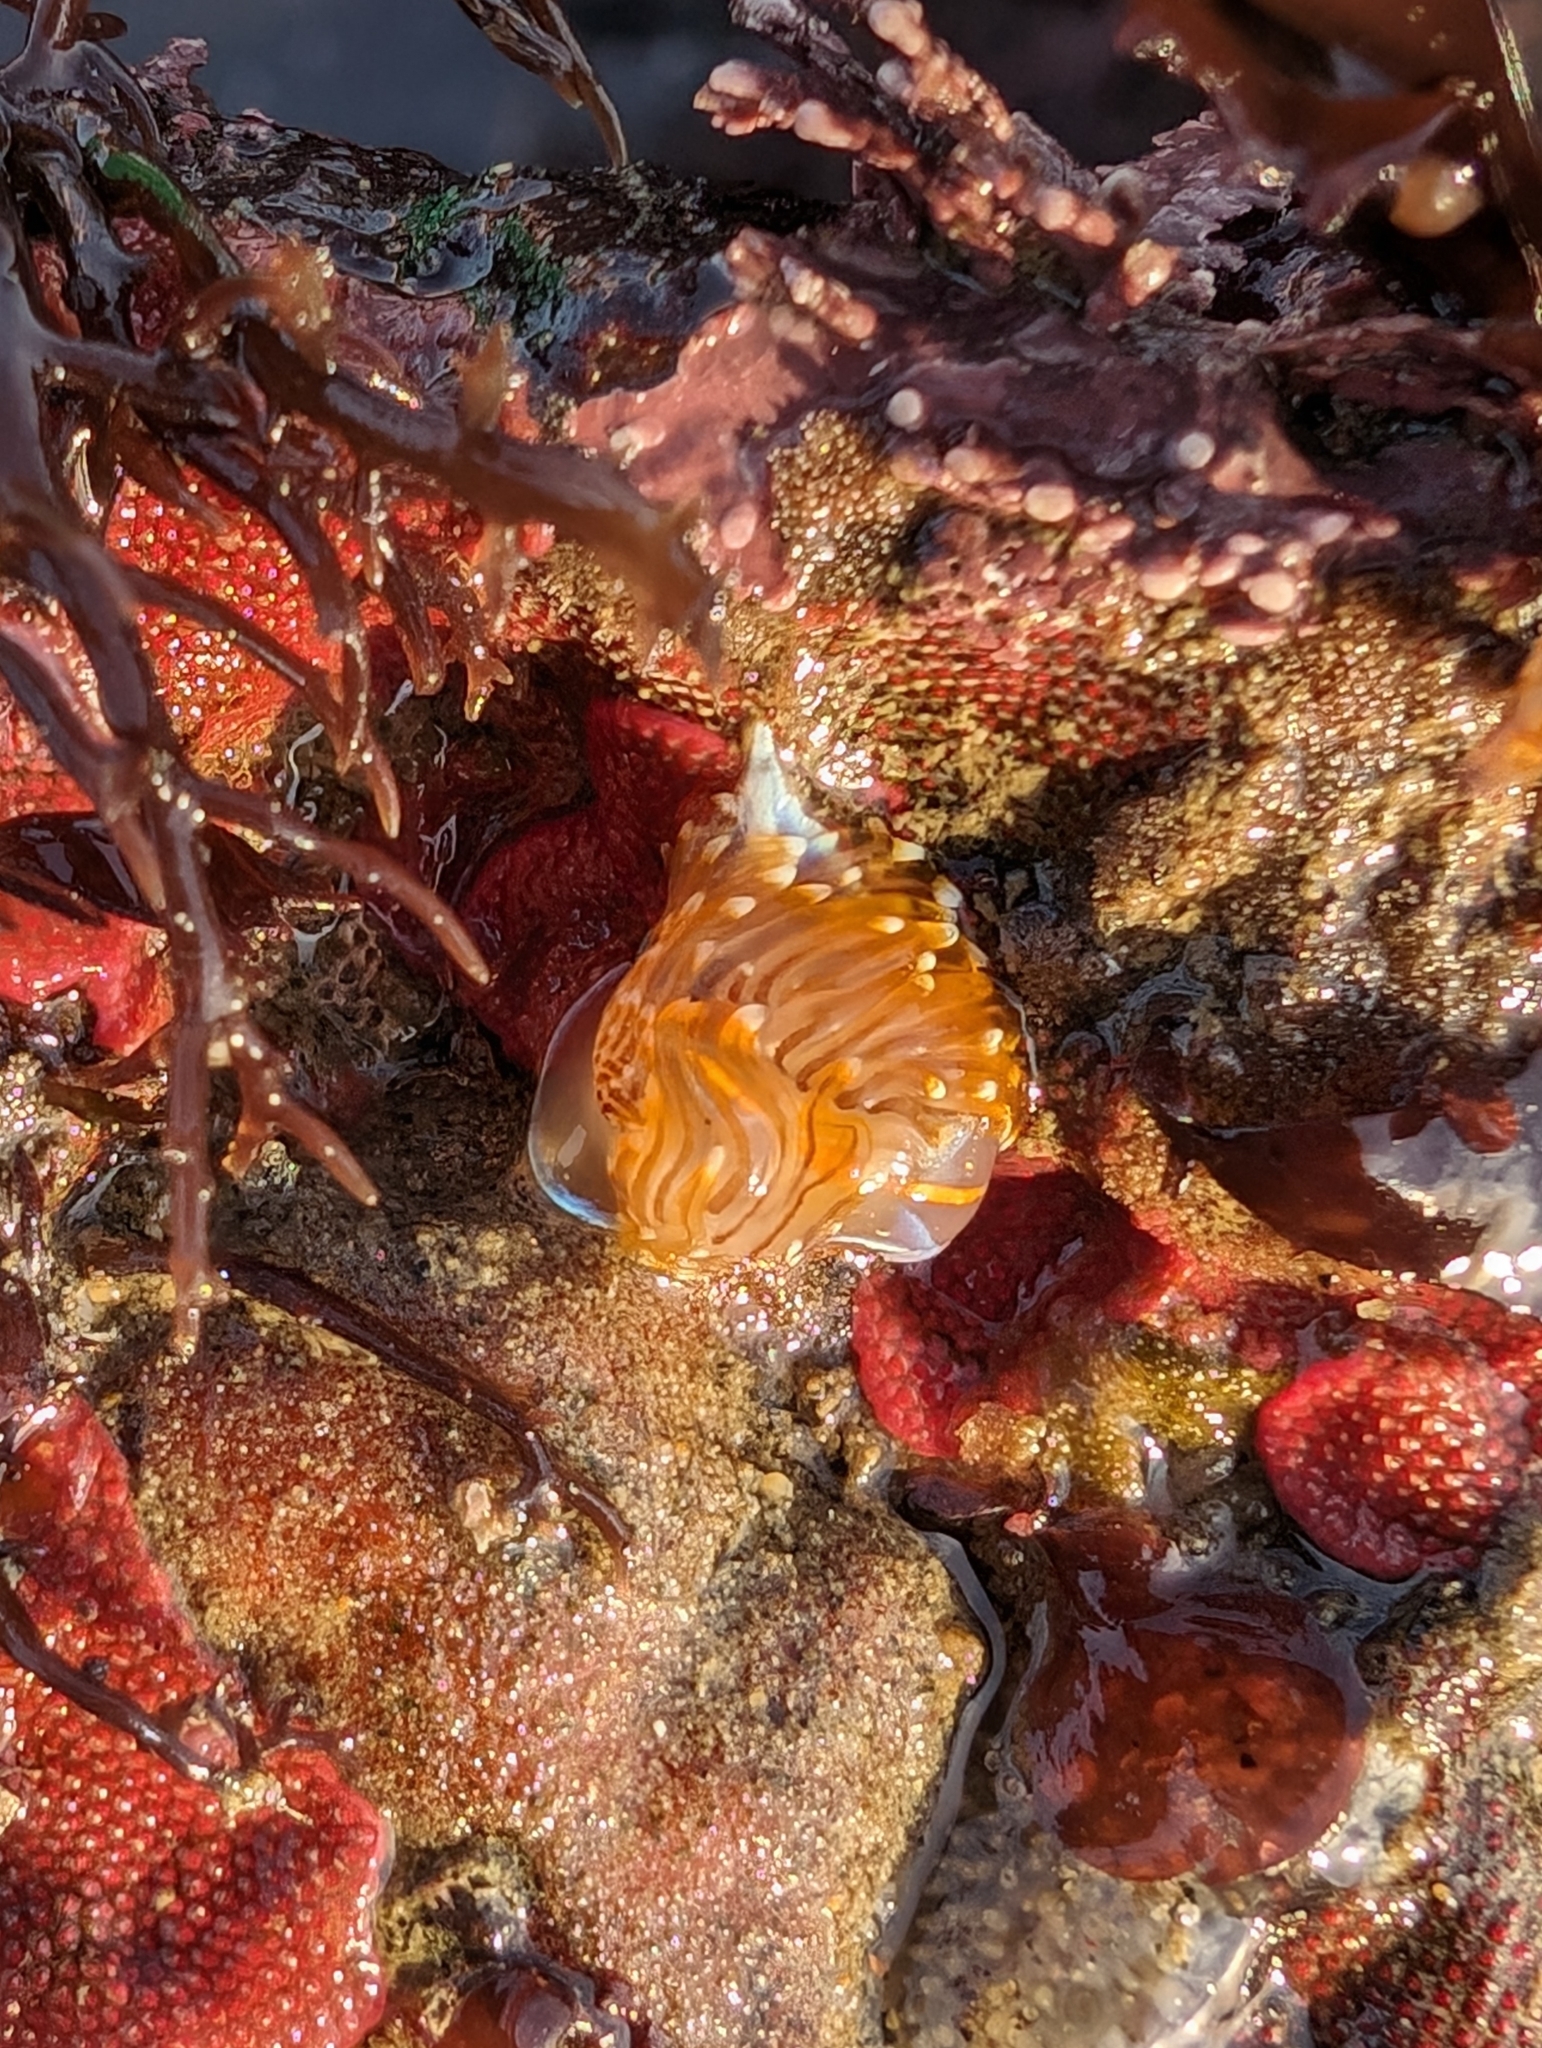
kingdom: Animalia
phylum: Mollusca
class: Gastropoda
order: Nudibranchia
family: Myrrhinidae
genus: Hermissenda
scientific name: Hermissenda opalescens
